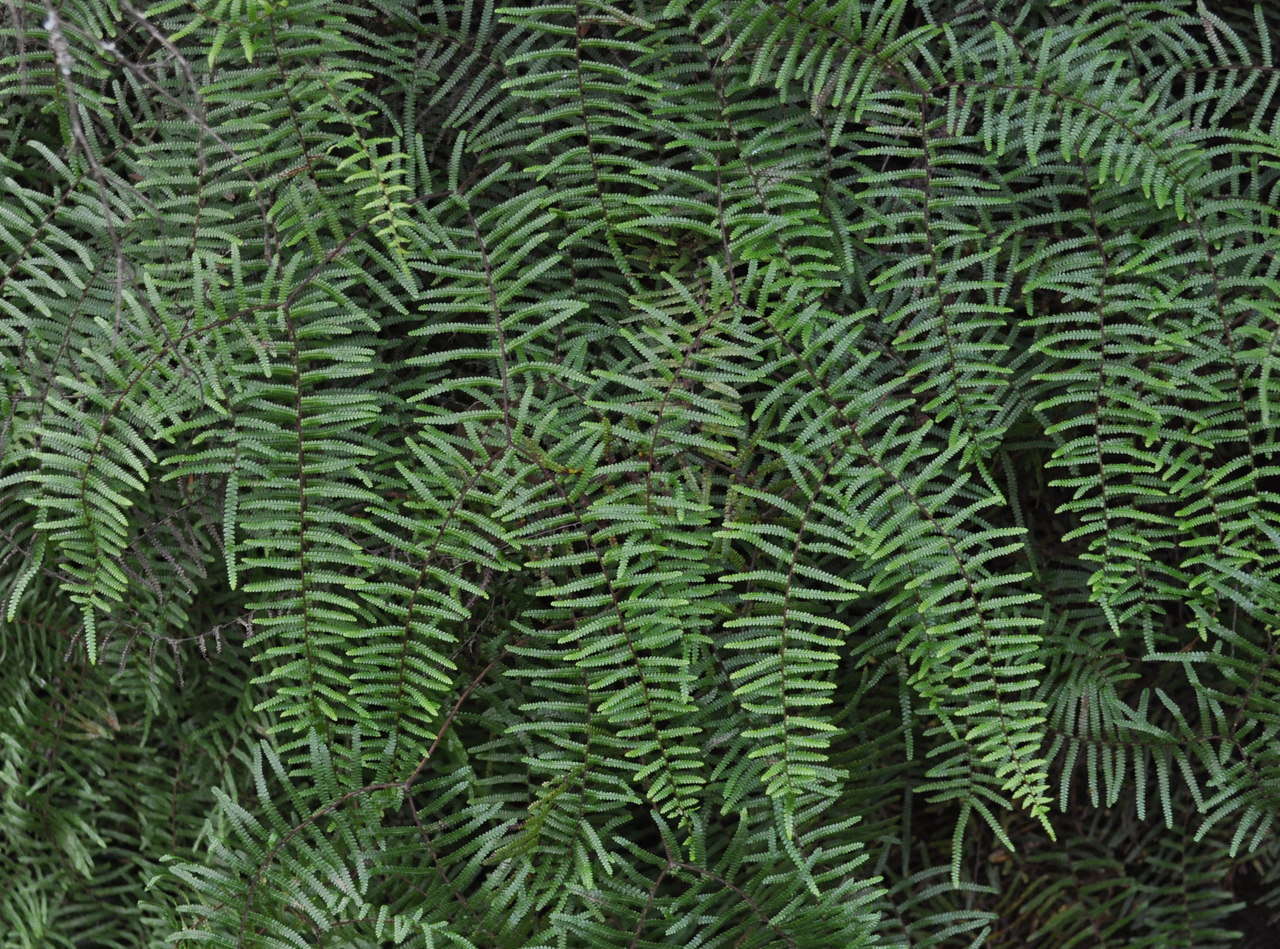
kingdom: Plantae
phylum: Tracheophyta
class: Polypodiopsida
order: Gleicheniales
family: Gleicheniaceae
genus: Gleichenia
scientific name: Gleichenia microphylla
